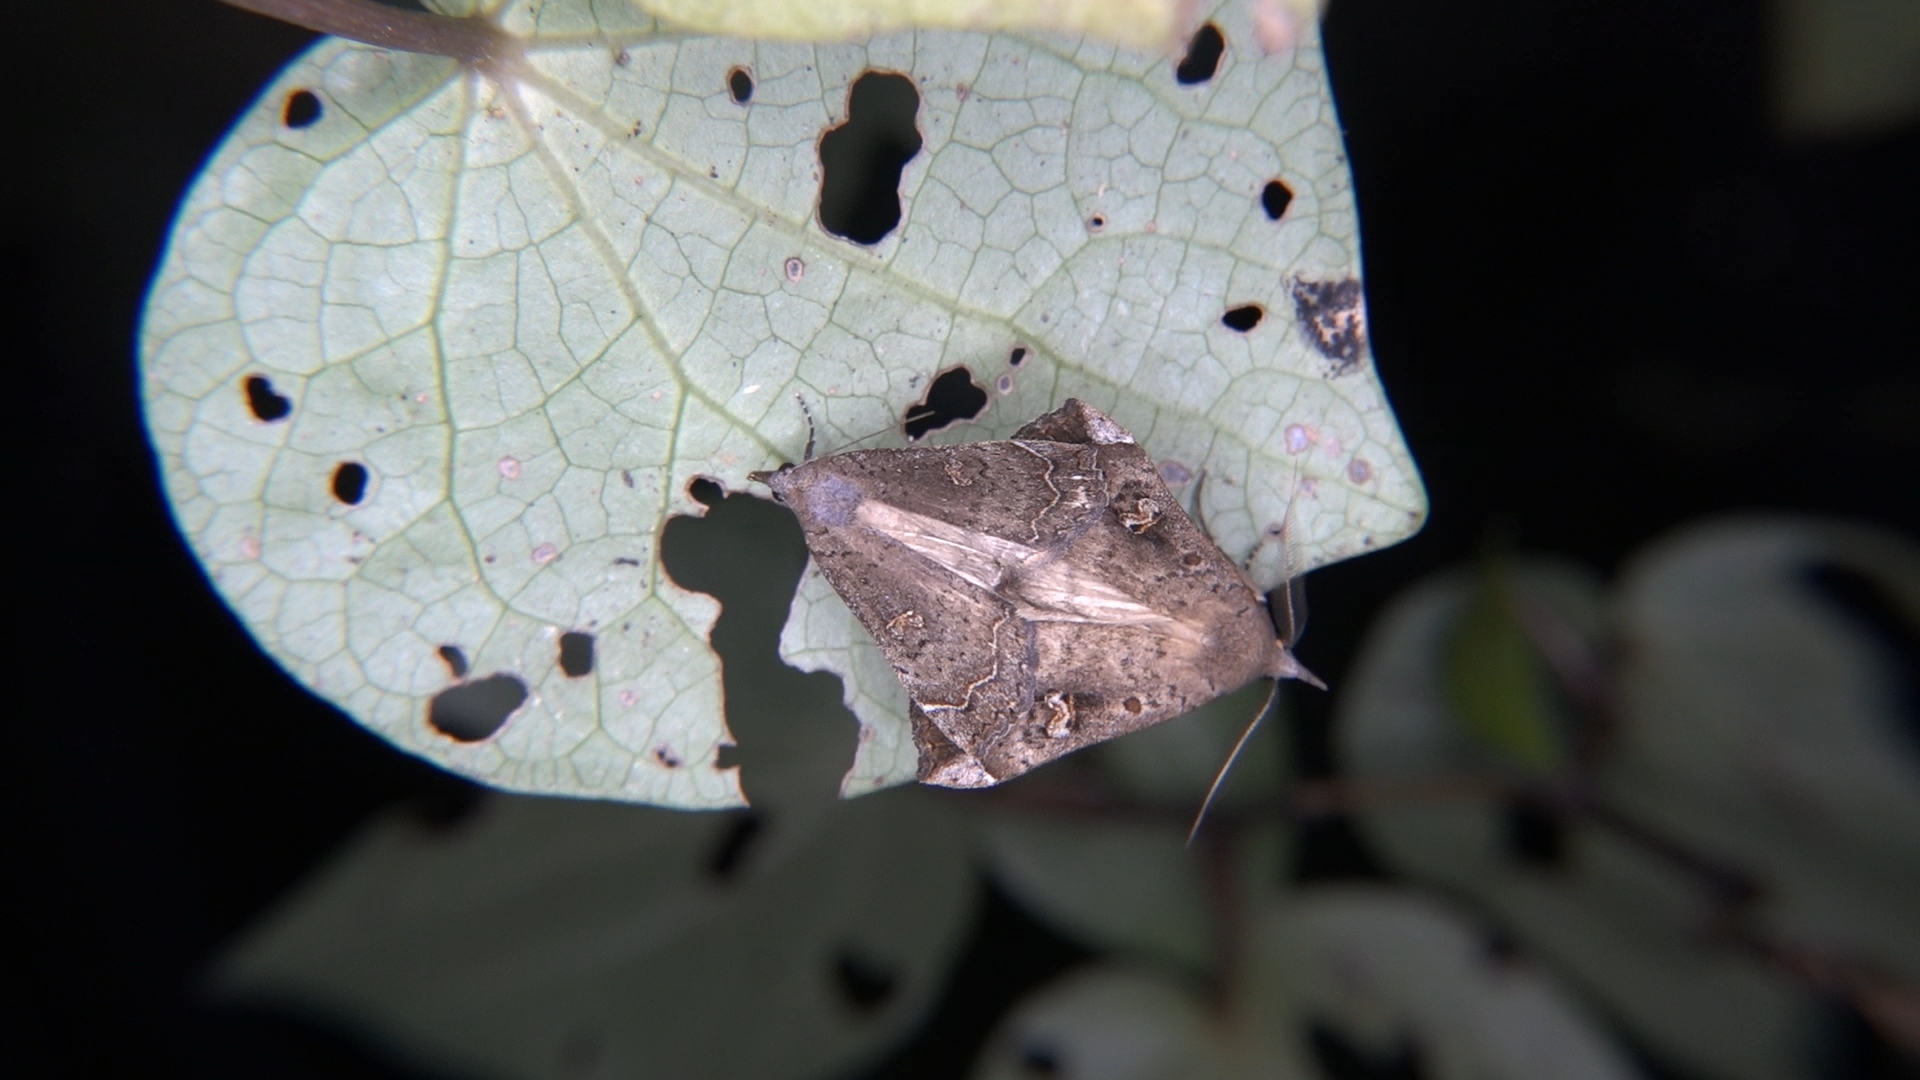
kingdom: Animalia
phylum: Arthropoda
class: Insecta
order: Lepidoptera
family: Erebidae
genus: Rhapsa
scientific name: Rhapsa scotosialis
